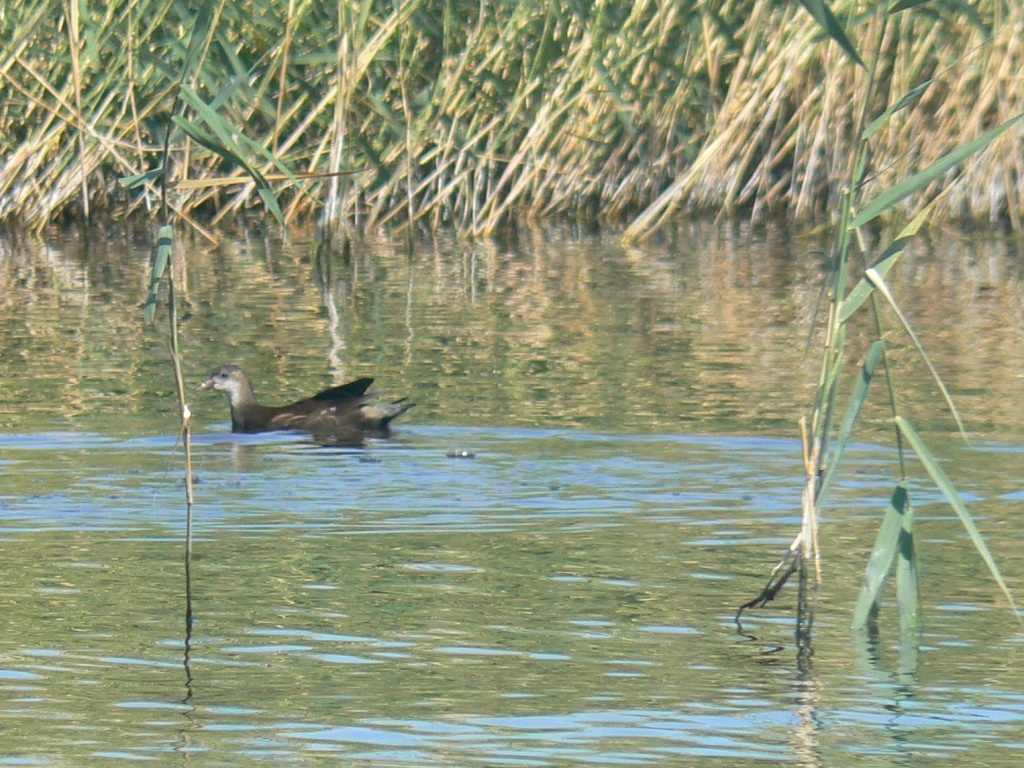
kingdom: Animalia
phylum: Chordata
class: Aves
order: Gruiformes
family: Rallidae
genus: Gallinula
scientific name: Gallinula chloropus
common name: Common moorhen
